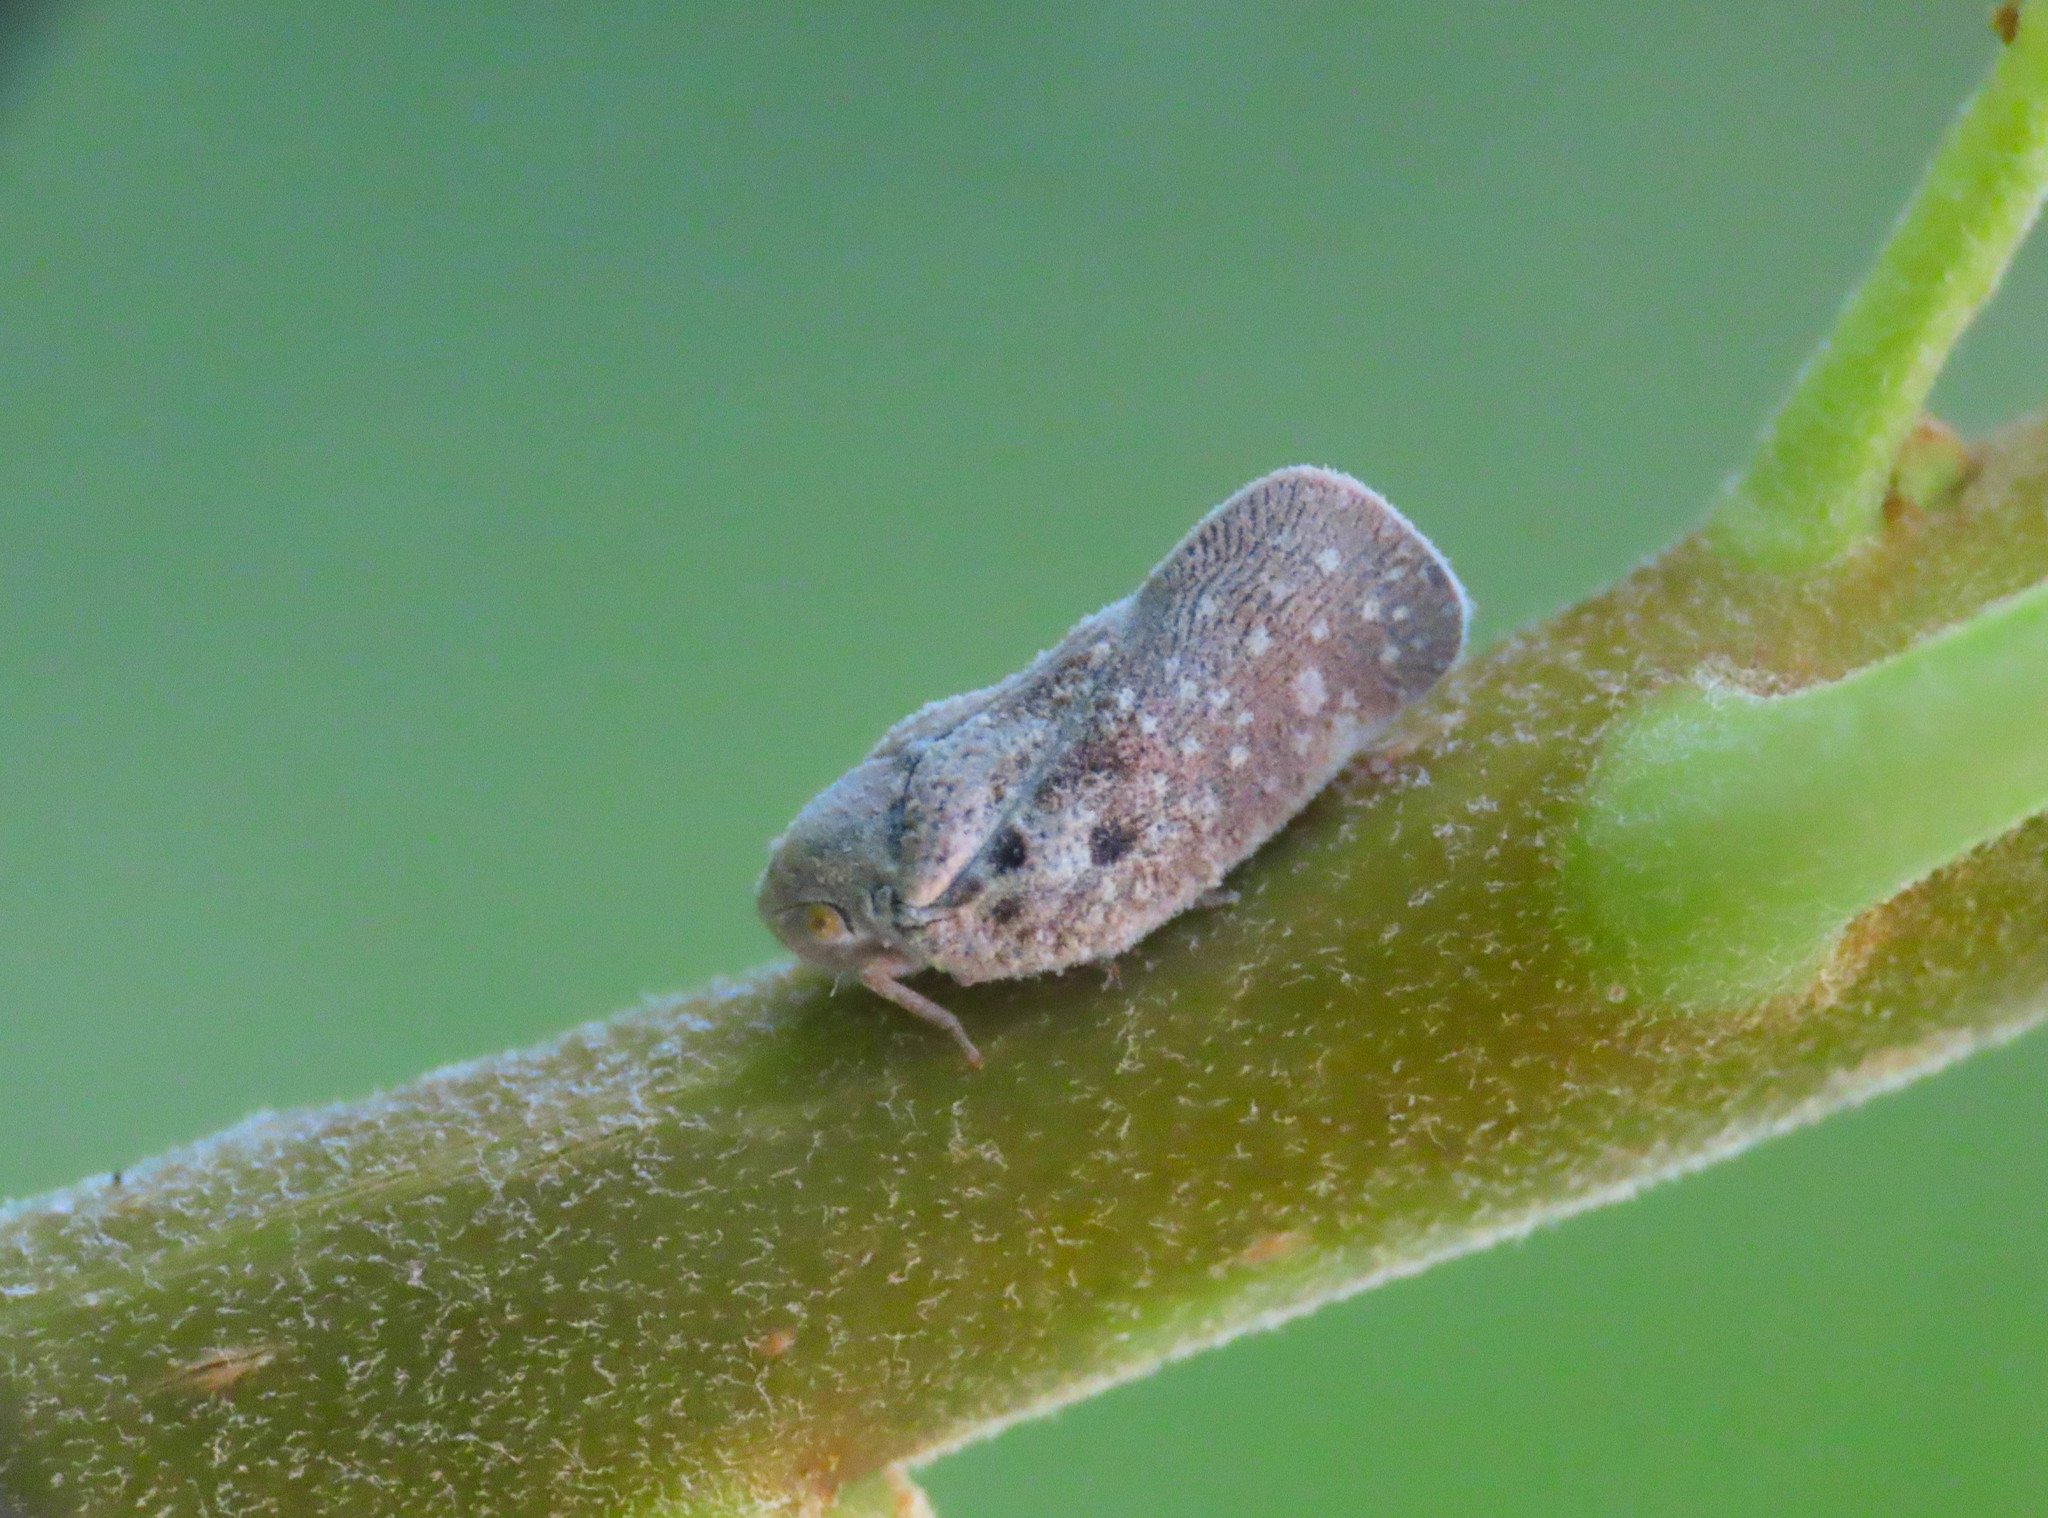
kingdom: Animalia
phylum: Arthropoda
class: Insecta
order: Hemiptera
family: Flatidae
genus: Metcalfa
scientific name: Metcalfa pruinosa
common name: Citrus flatid planthopper
